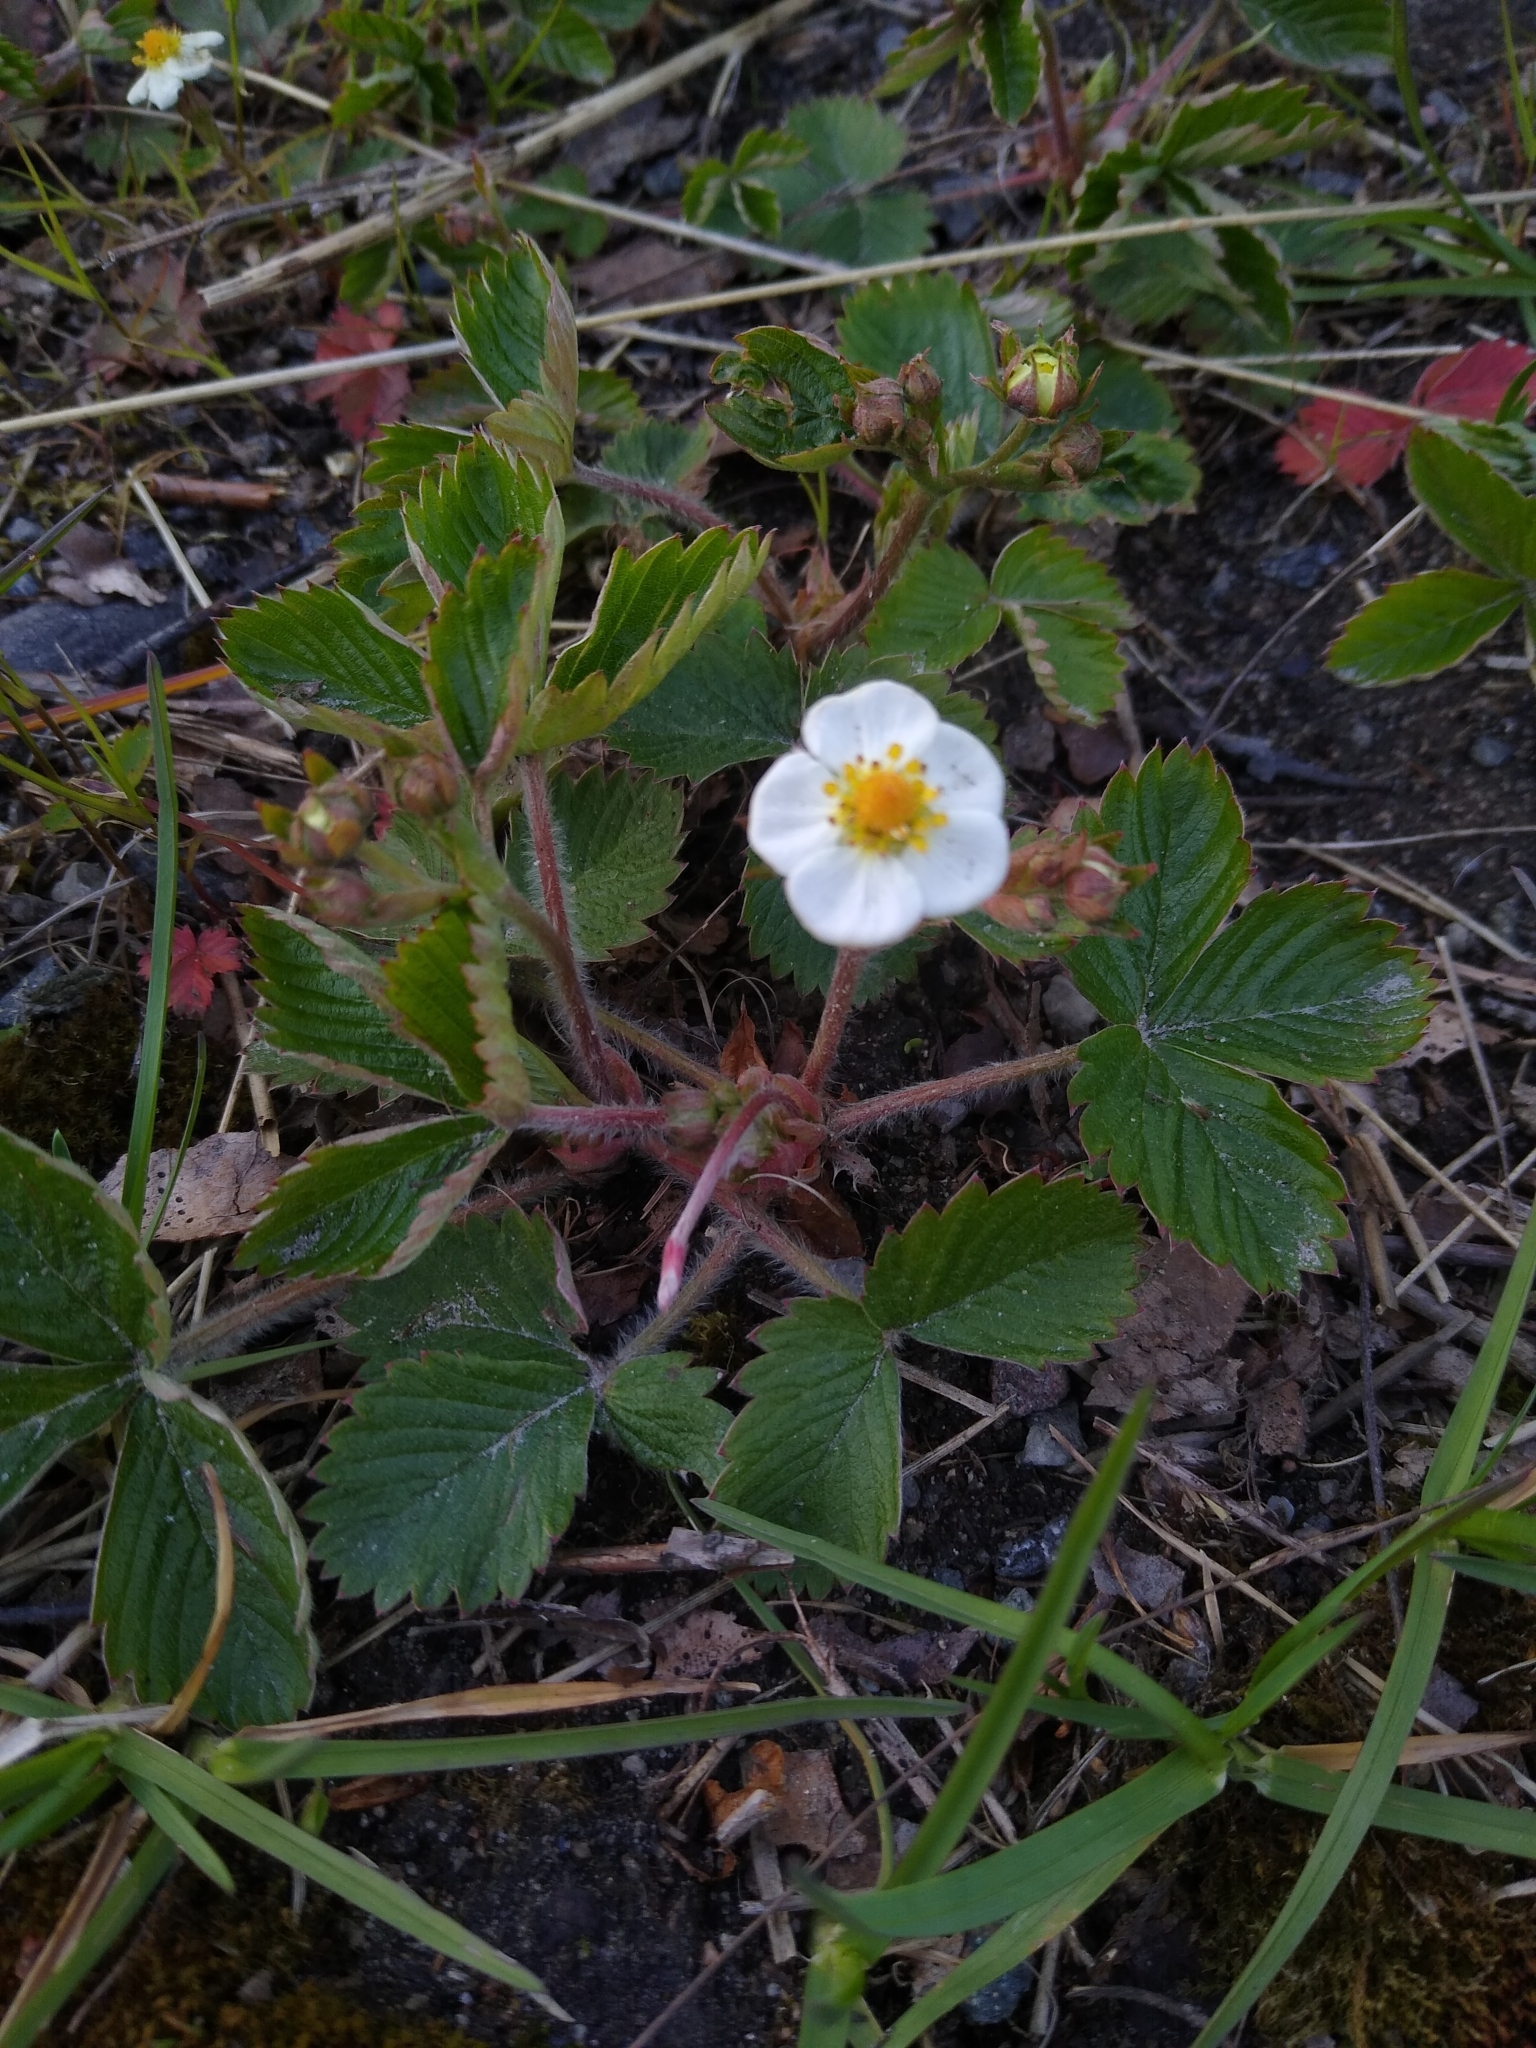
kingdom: Plantae
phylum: Tracheophyta
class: Magnoliopsida
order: Rosales
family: Rosaceae
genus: Fragaria
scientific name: Fragaria ananassa
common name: Garden strawberry
